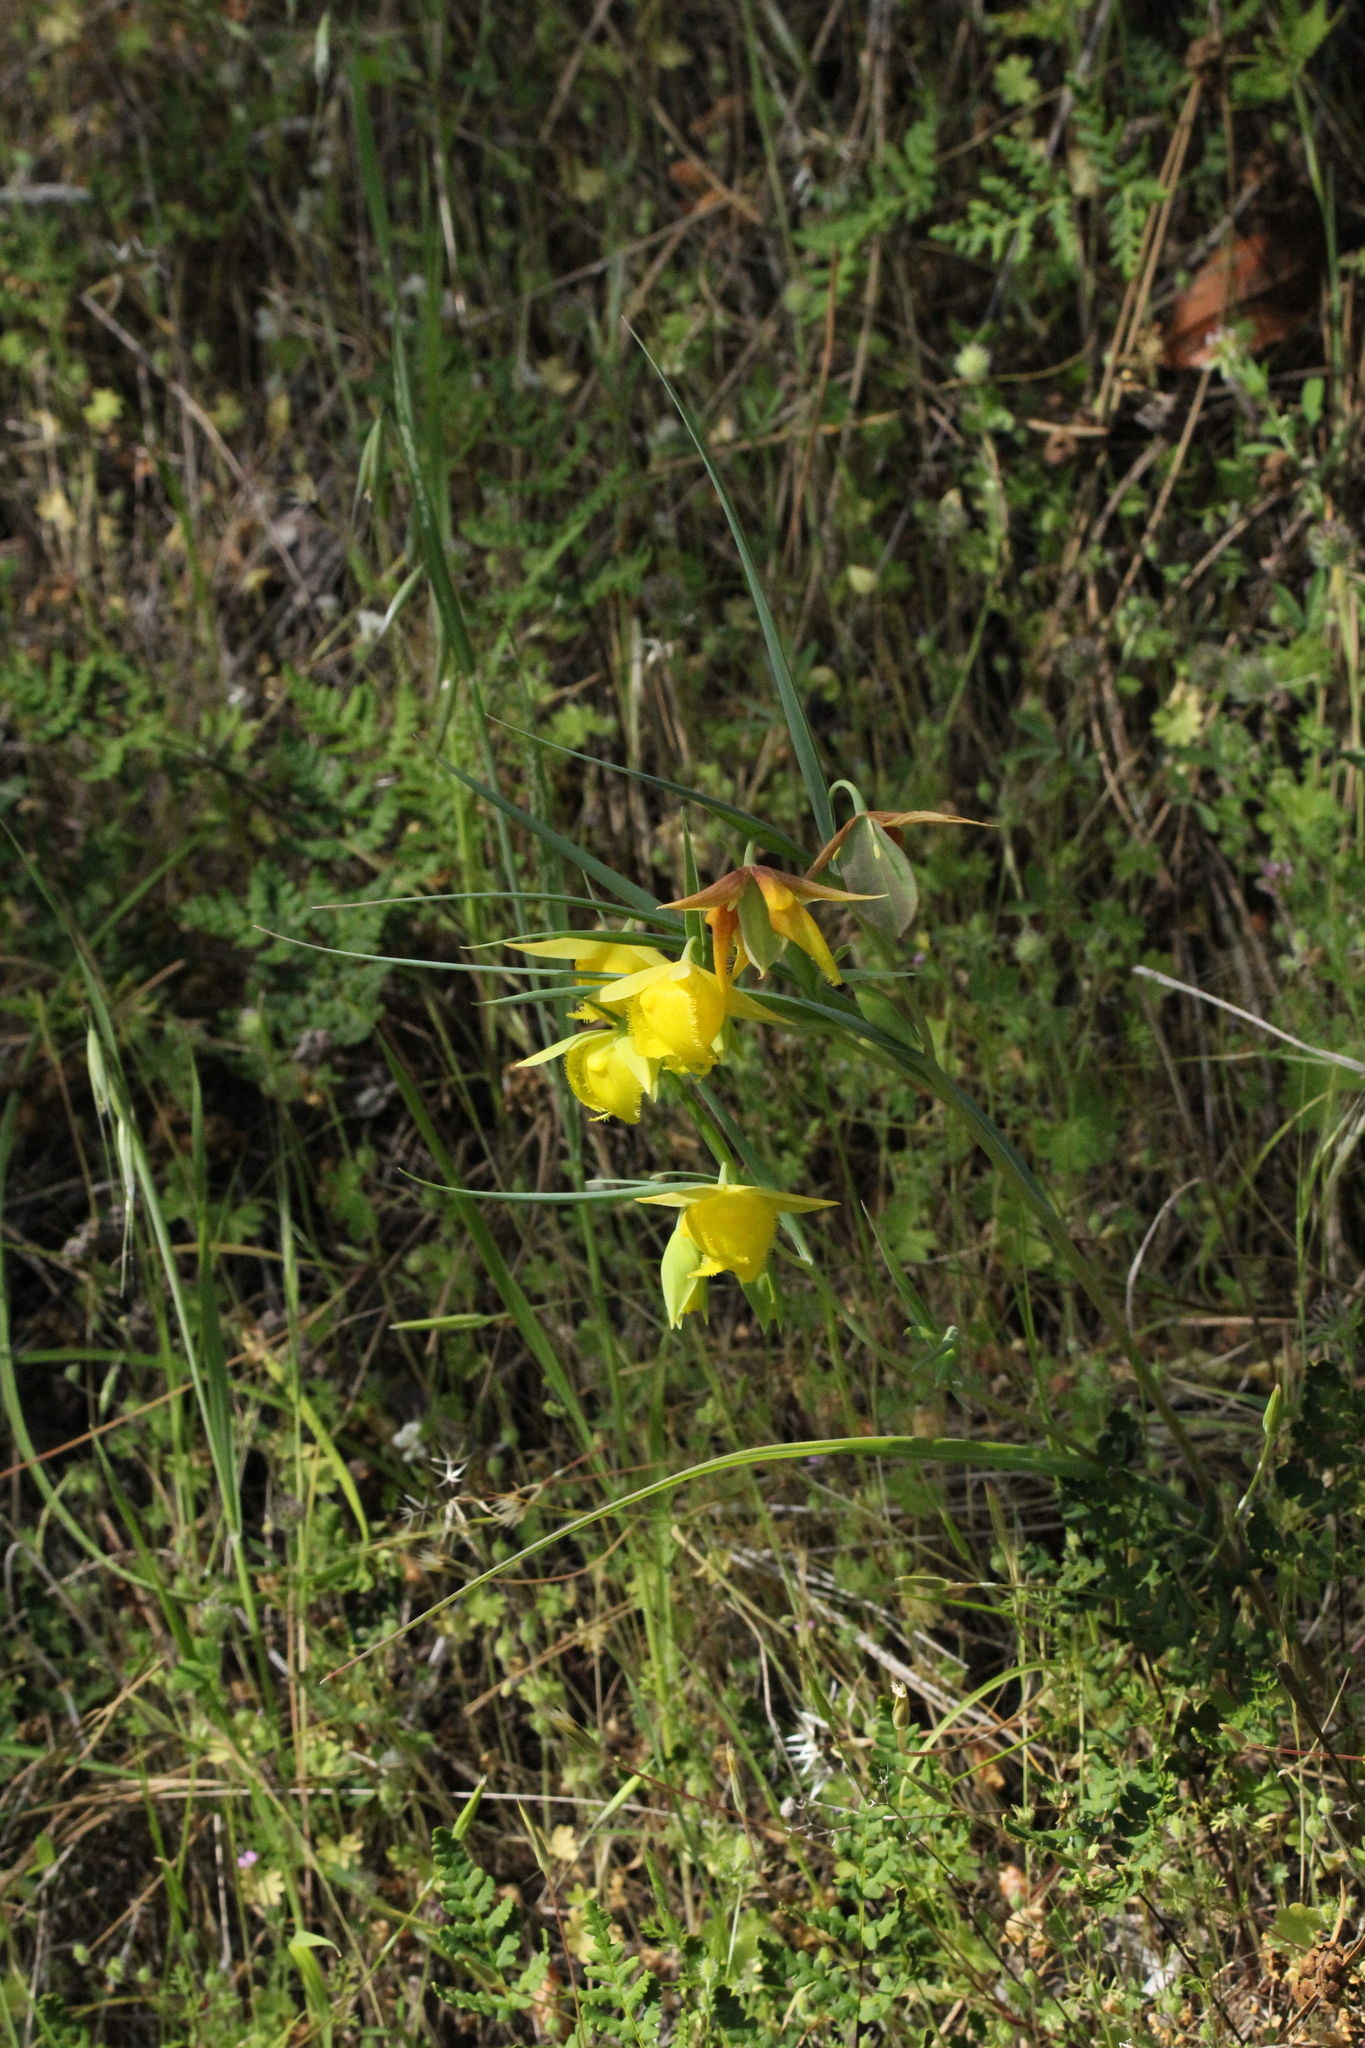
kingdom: Plantae
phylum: Tracheophyta
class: Liliopsida
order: Liliales
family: Liliaceae
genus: Calochortus
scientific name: Calochortus pulchellus
